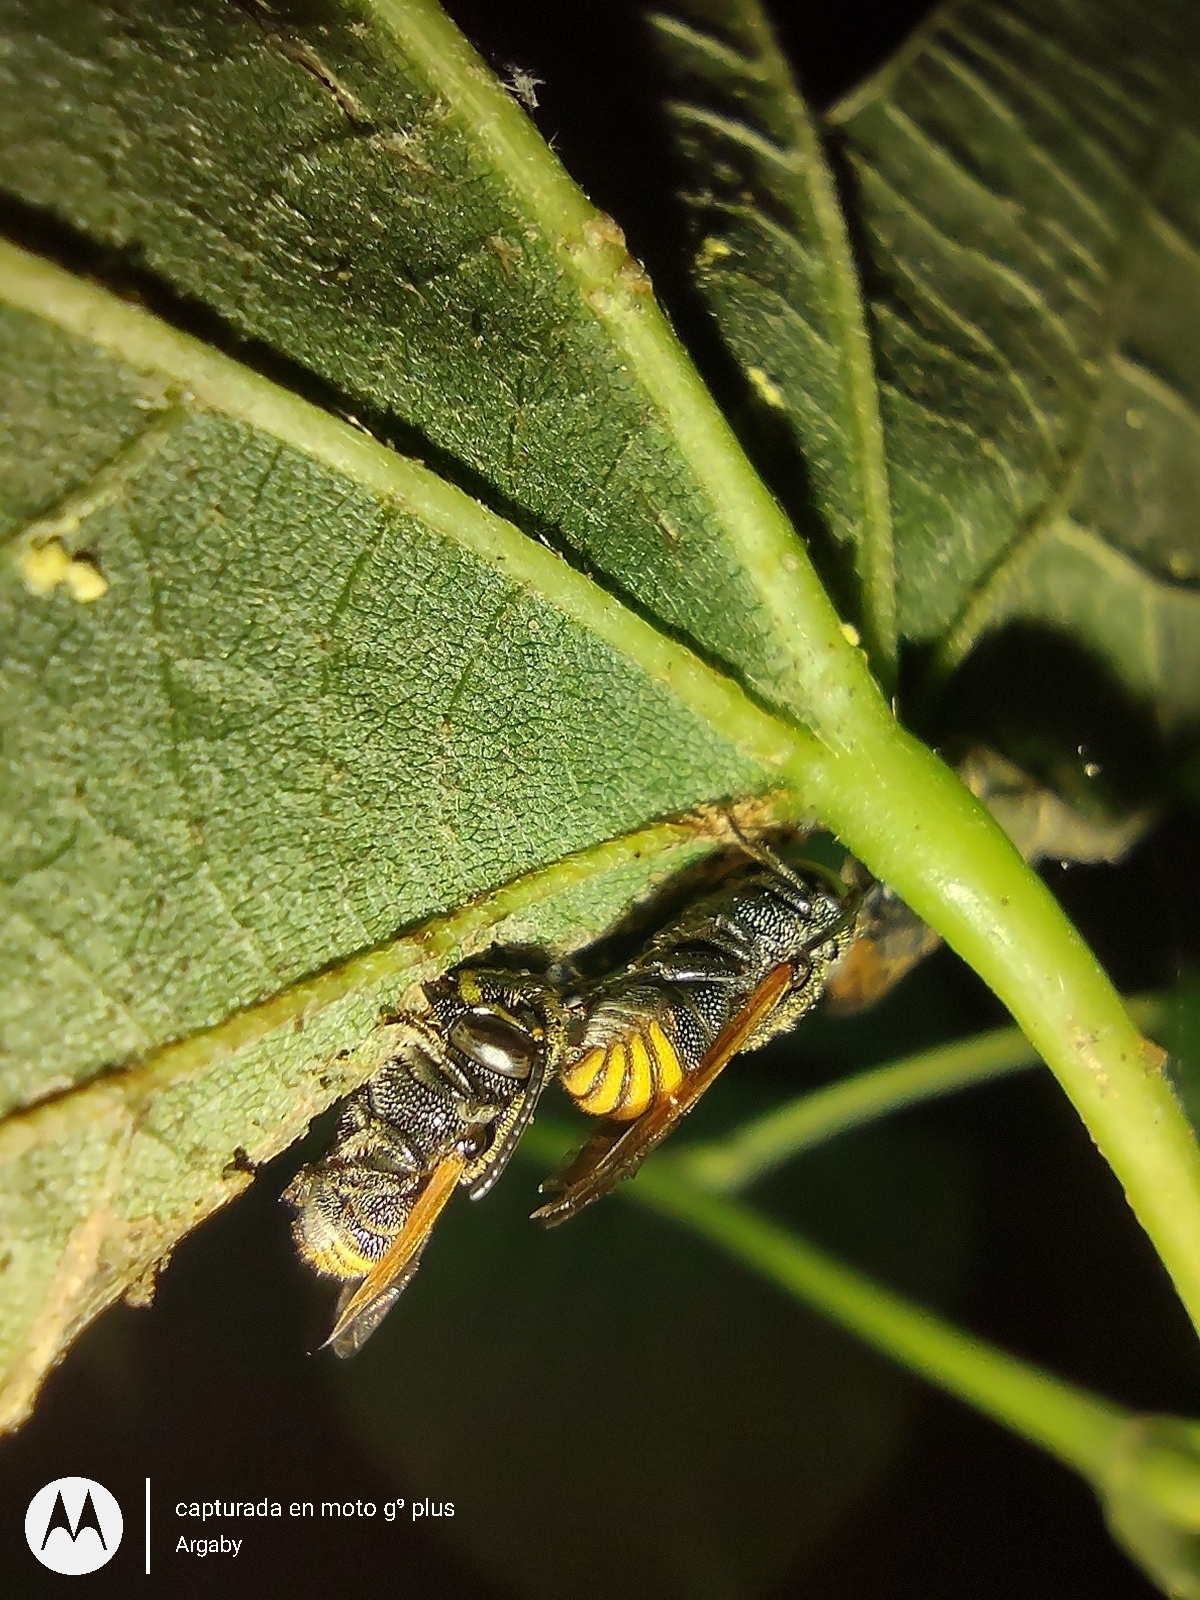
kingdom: Animalia
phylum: Arthropoda
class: Insecta
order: Hymenoptera
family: Megachilidae
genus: Anthodioctes
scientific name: Anthodioctes megachiloides
